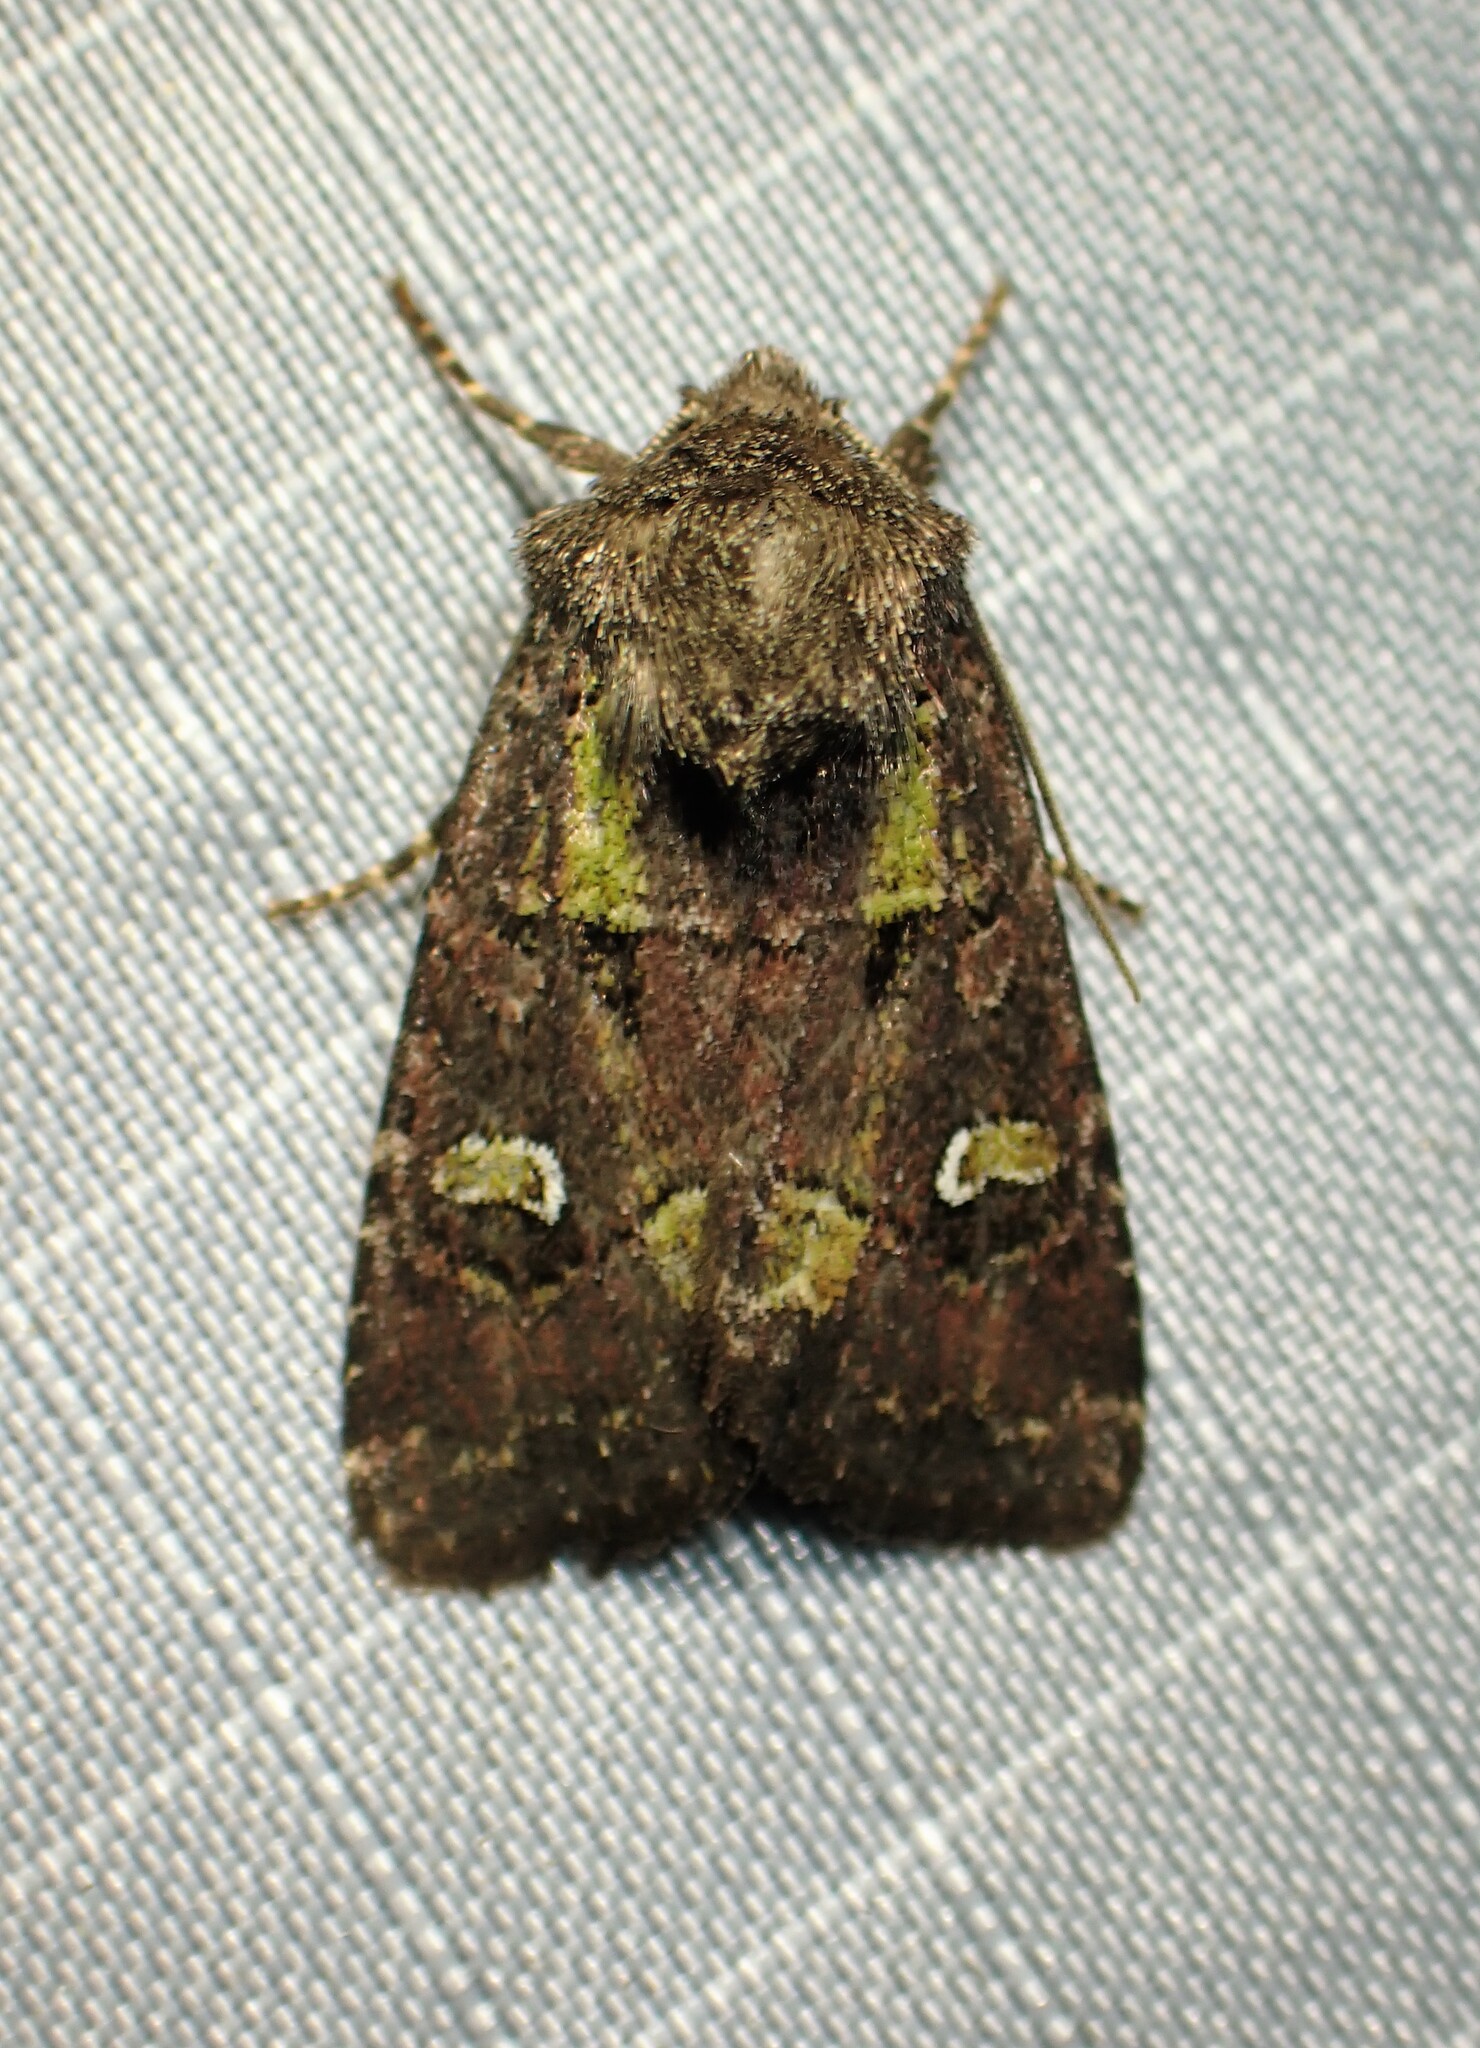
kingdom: Animalia
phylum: Arthropoda
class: Insecta
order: Lepidoptera
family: Noctuidae
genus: Lacinipolia
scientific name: Lacinipolia renigera
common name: Kidney-spotted minor
